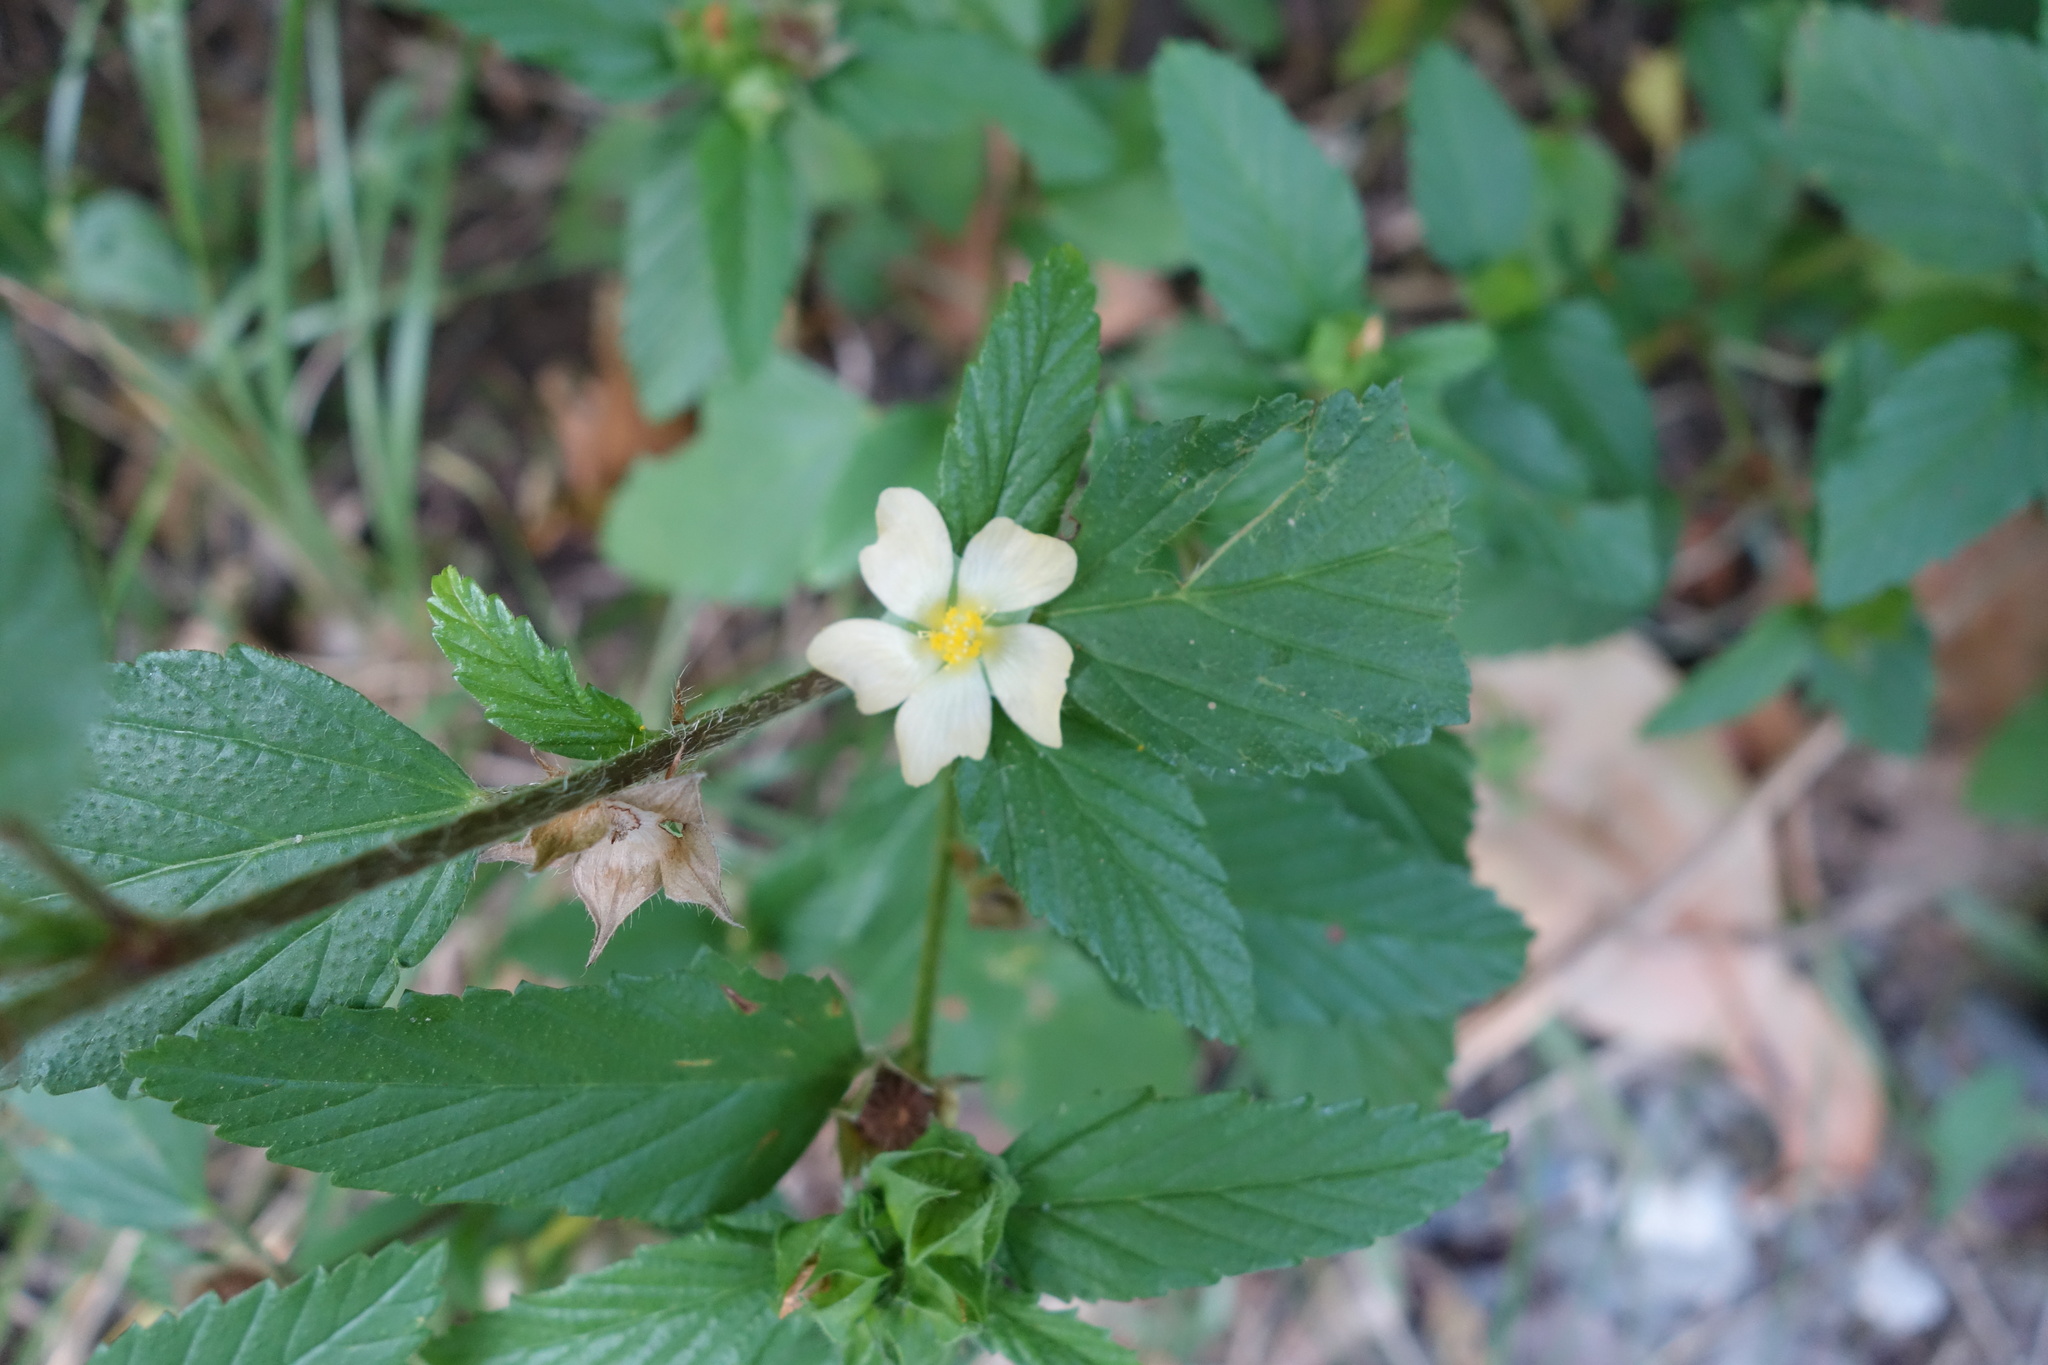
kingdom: Plantae
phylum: Tracheophyta
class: Magnoliopsida
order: Malvales
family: Malvaceae
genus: Malvastrum
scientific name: Malvastrum coromandelianum
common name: Threelobe false mallow
